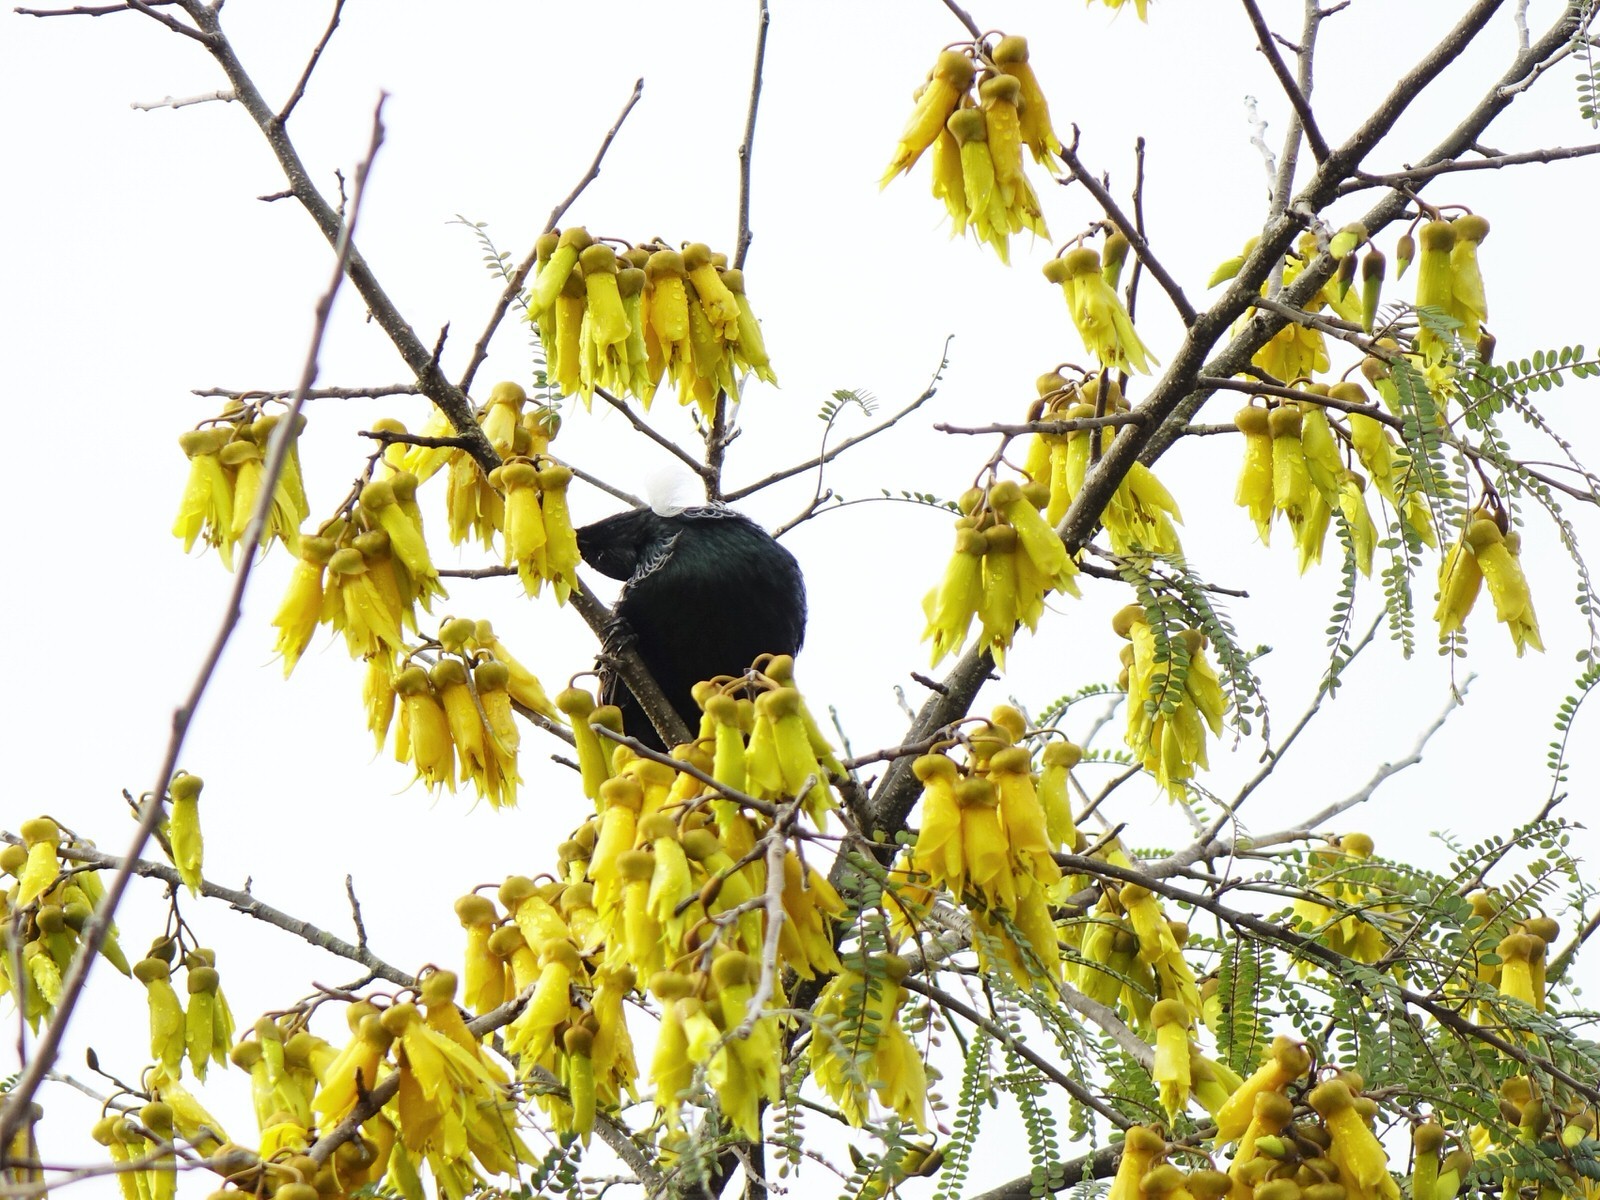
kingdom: Animalia
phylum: Chordata
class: Aves
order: Passeriformes
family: Meliphagidae
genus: Prosthemadera
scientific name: Prosthemadera novaeseelandiae
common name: Tui
